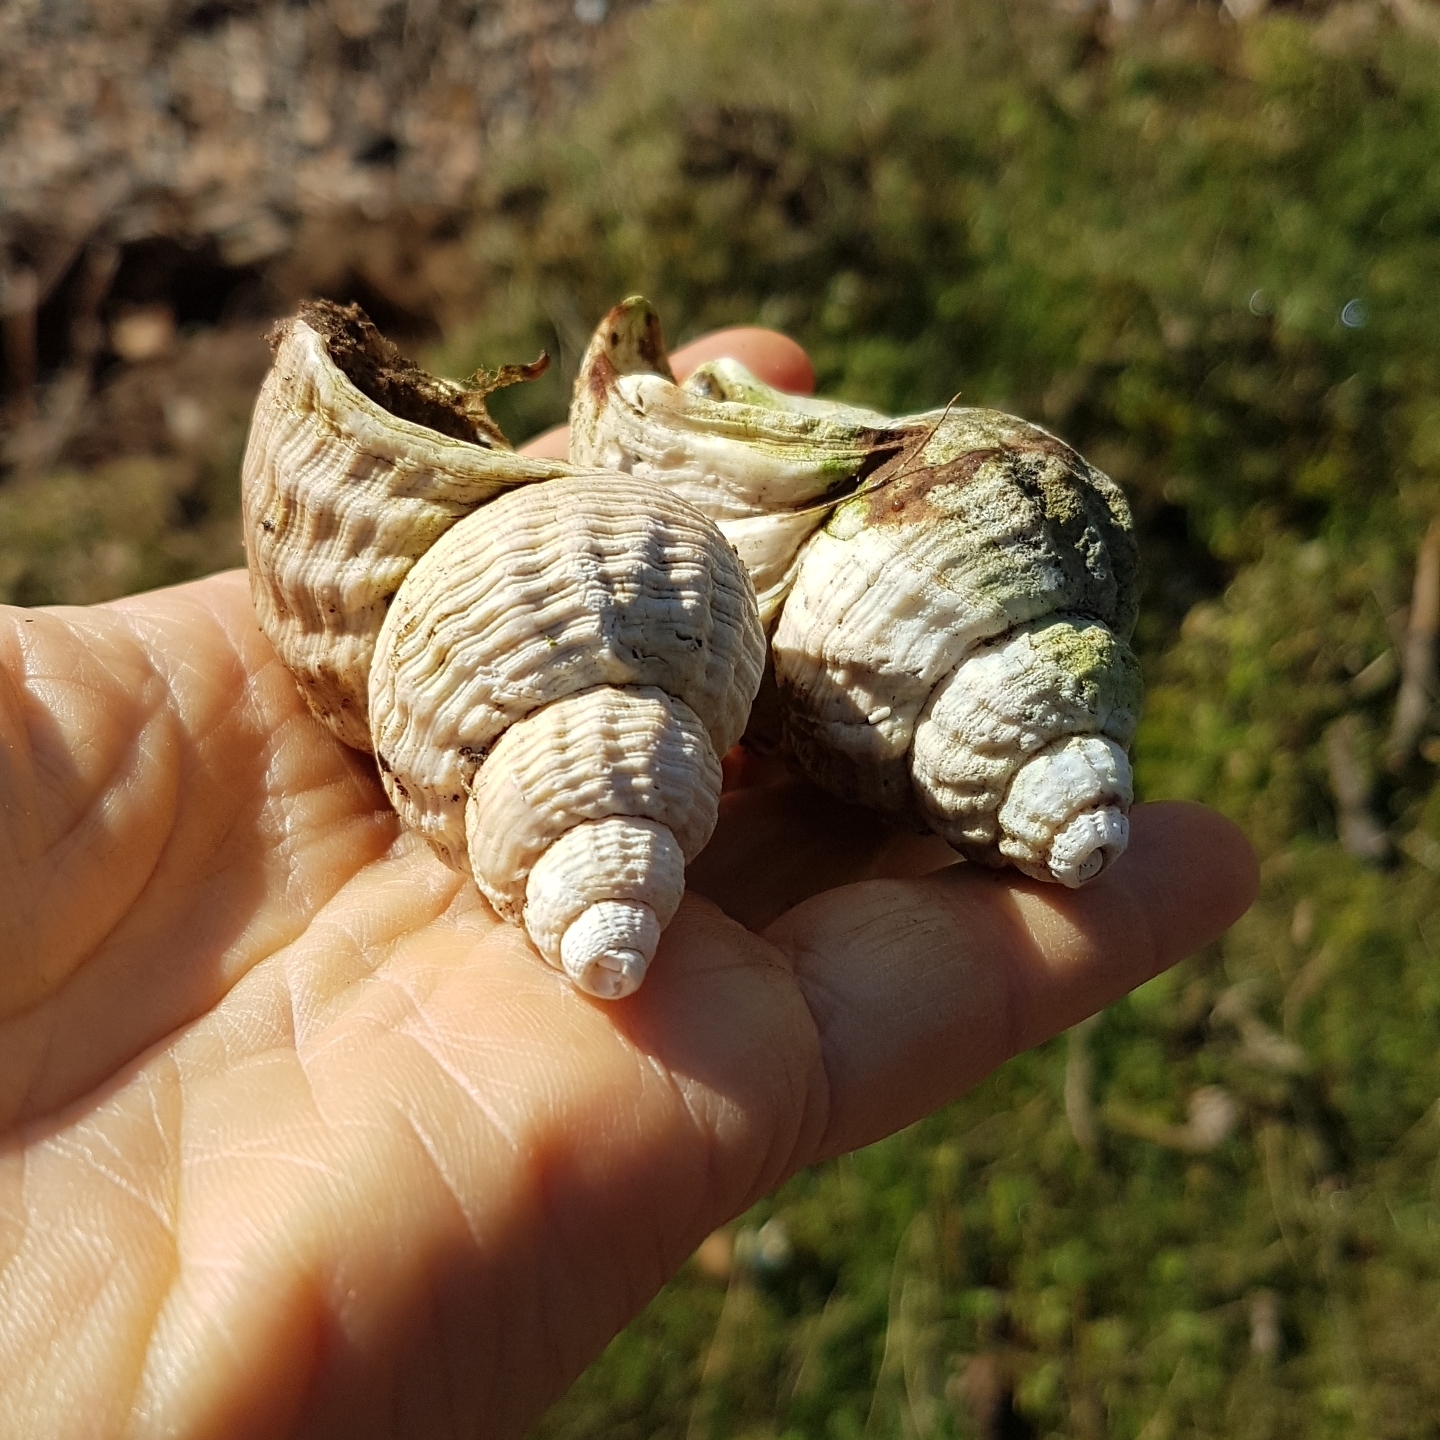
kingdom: Animalia
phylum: Mollusca
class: Gastropoda
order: Neogastropoda
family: Buccinidae
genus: Buccinum
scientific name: Buccinum undatum
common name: Common whelk
